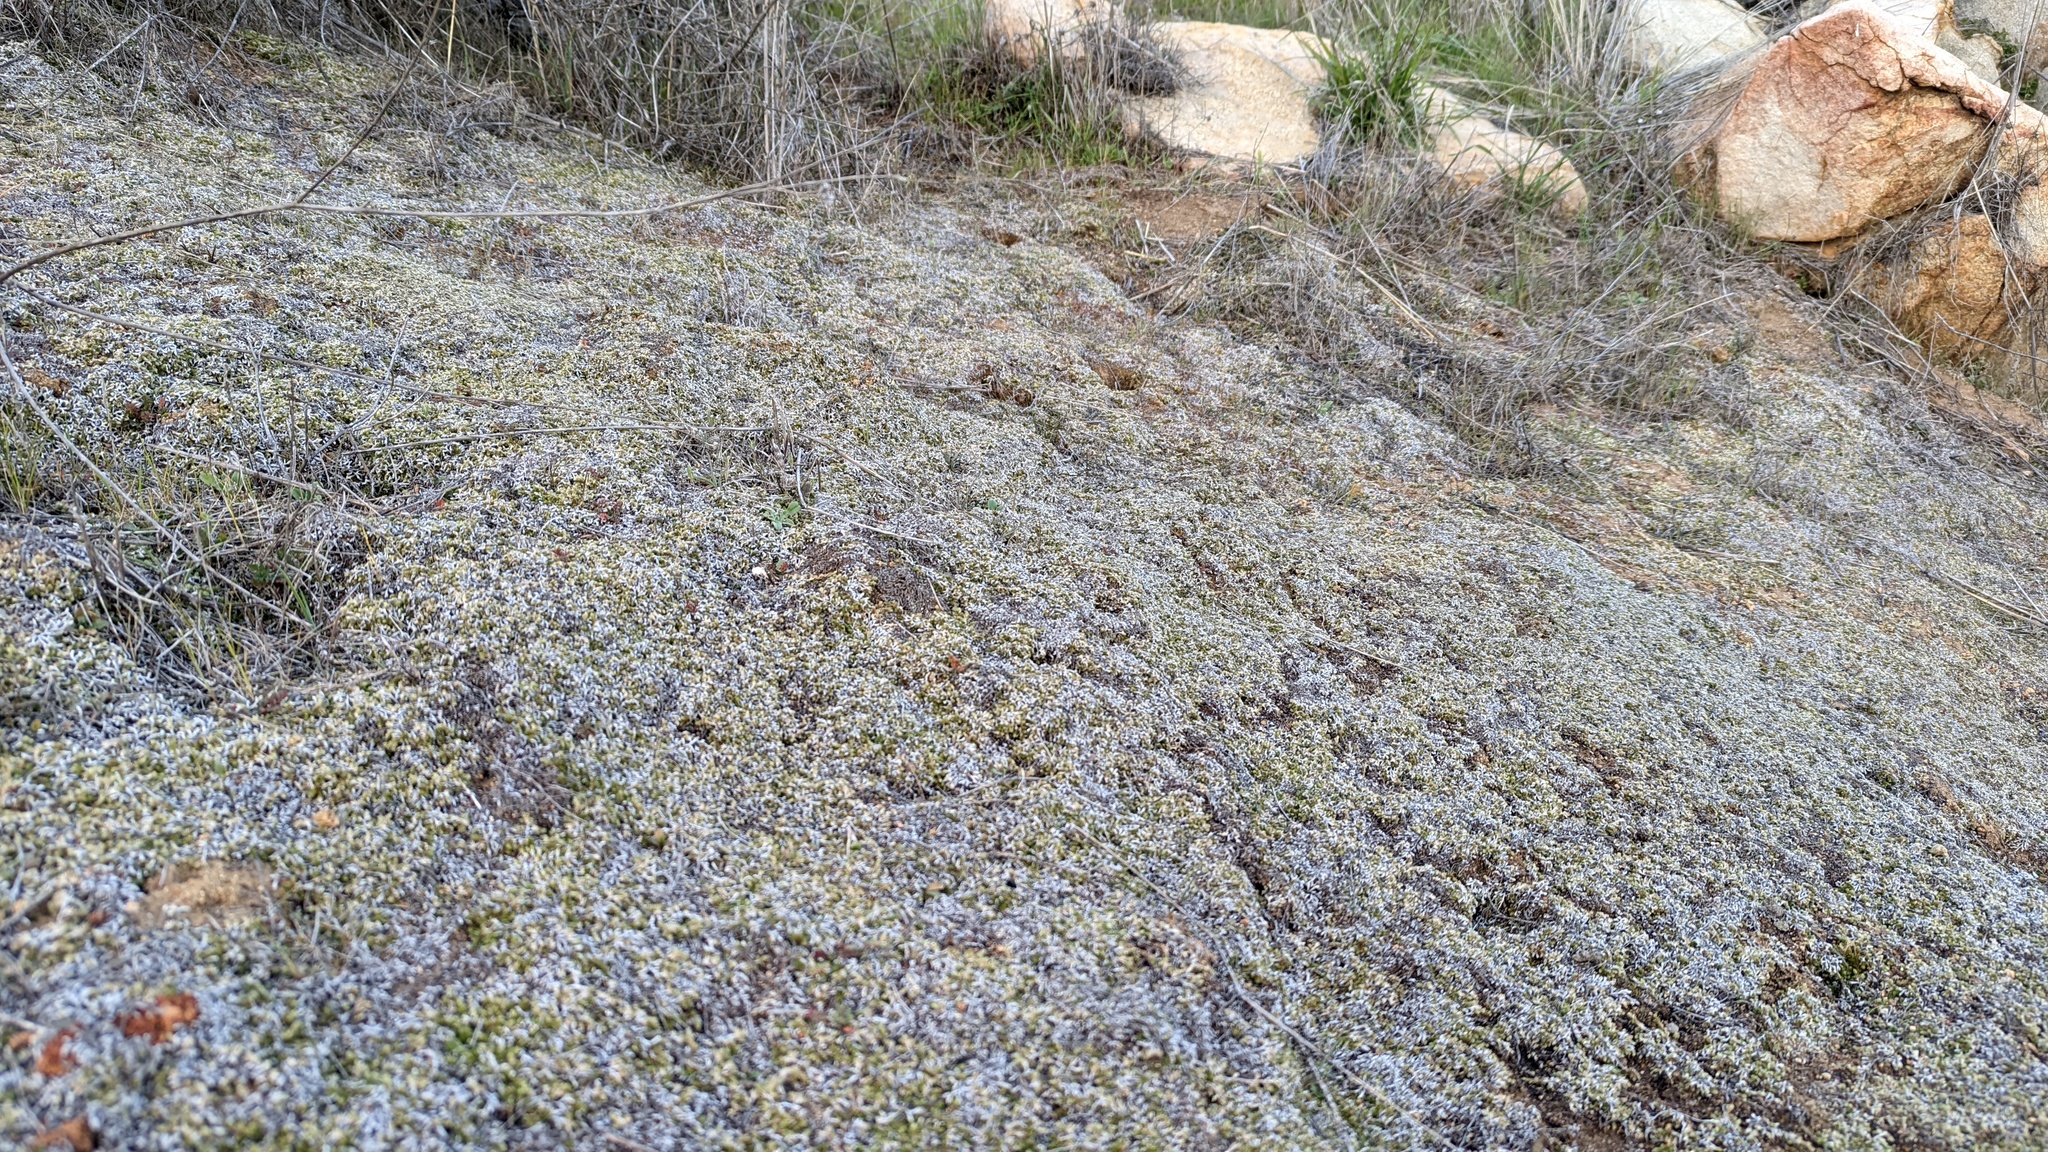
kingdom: Plantae
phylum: Tracheophyta
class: Lycopodiopsida
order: Selaginellales
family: Selaginellaceae
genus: Selaginella
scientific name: Selaginella cinerascens
